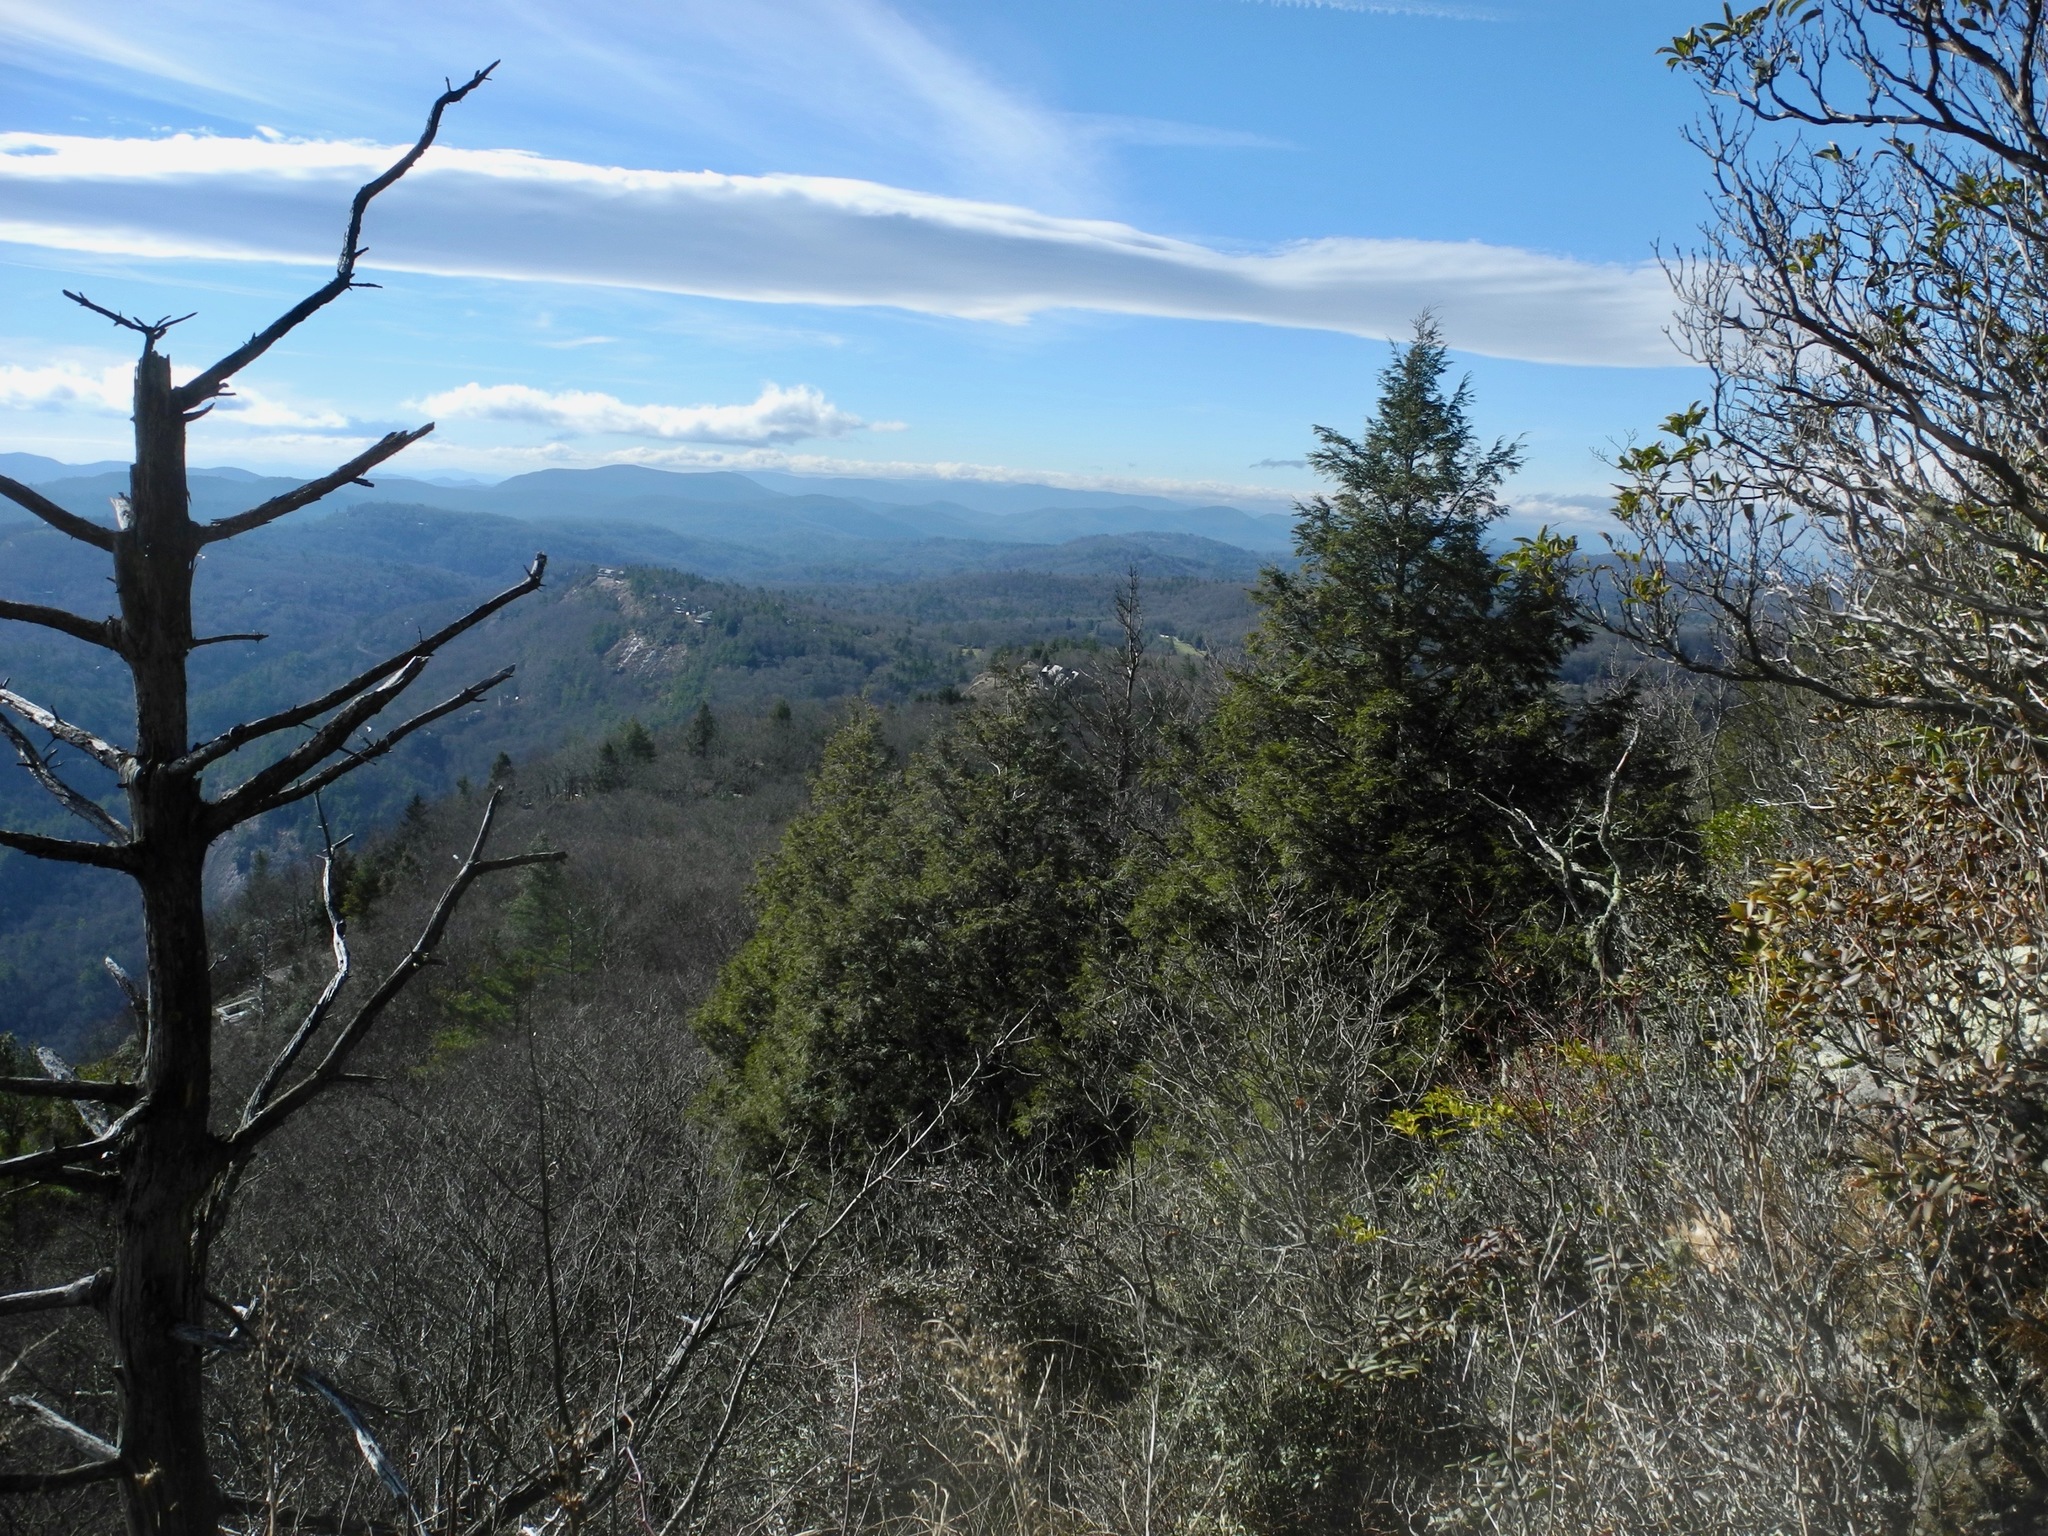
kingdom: Plantae
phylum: Tracheophyta
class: Pinopsida
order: Pinales
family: Cupressaceae
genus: Juniperus
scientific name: Juniperus virginiana
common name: Red juniper
